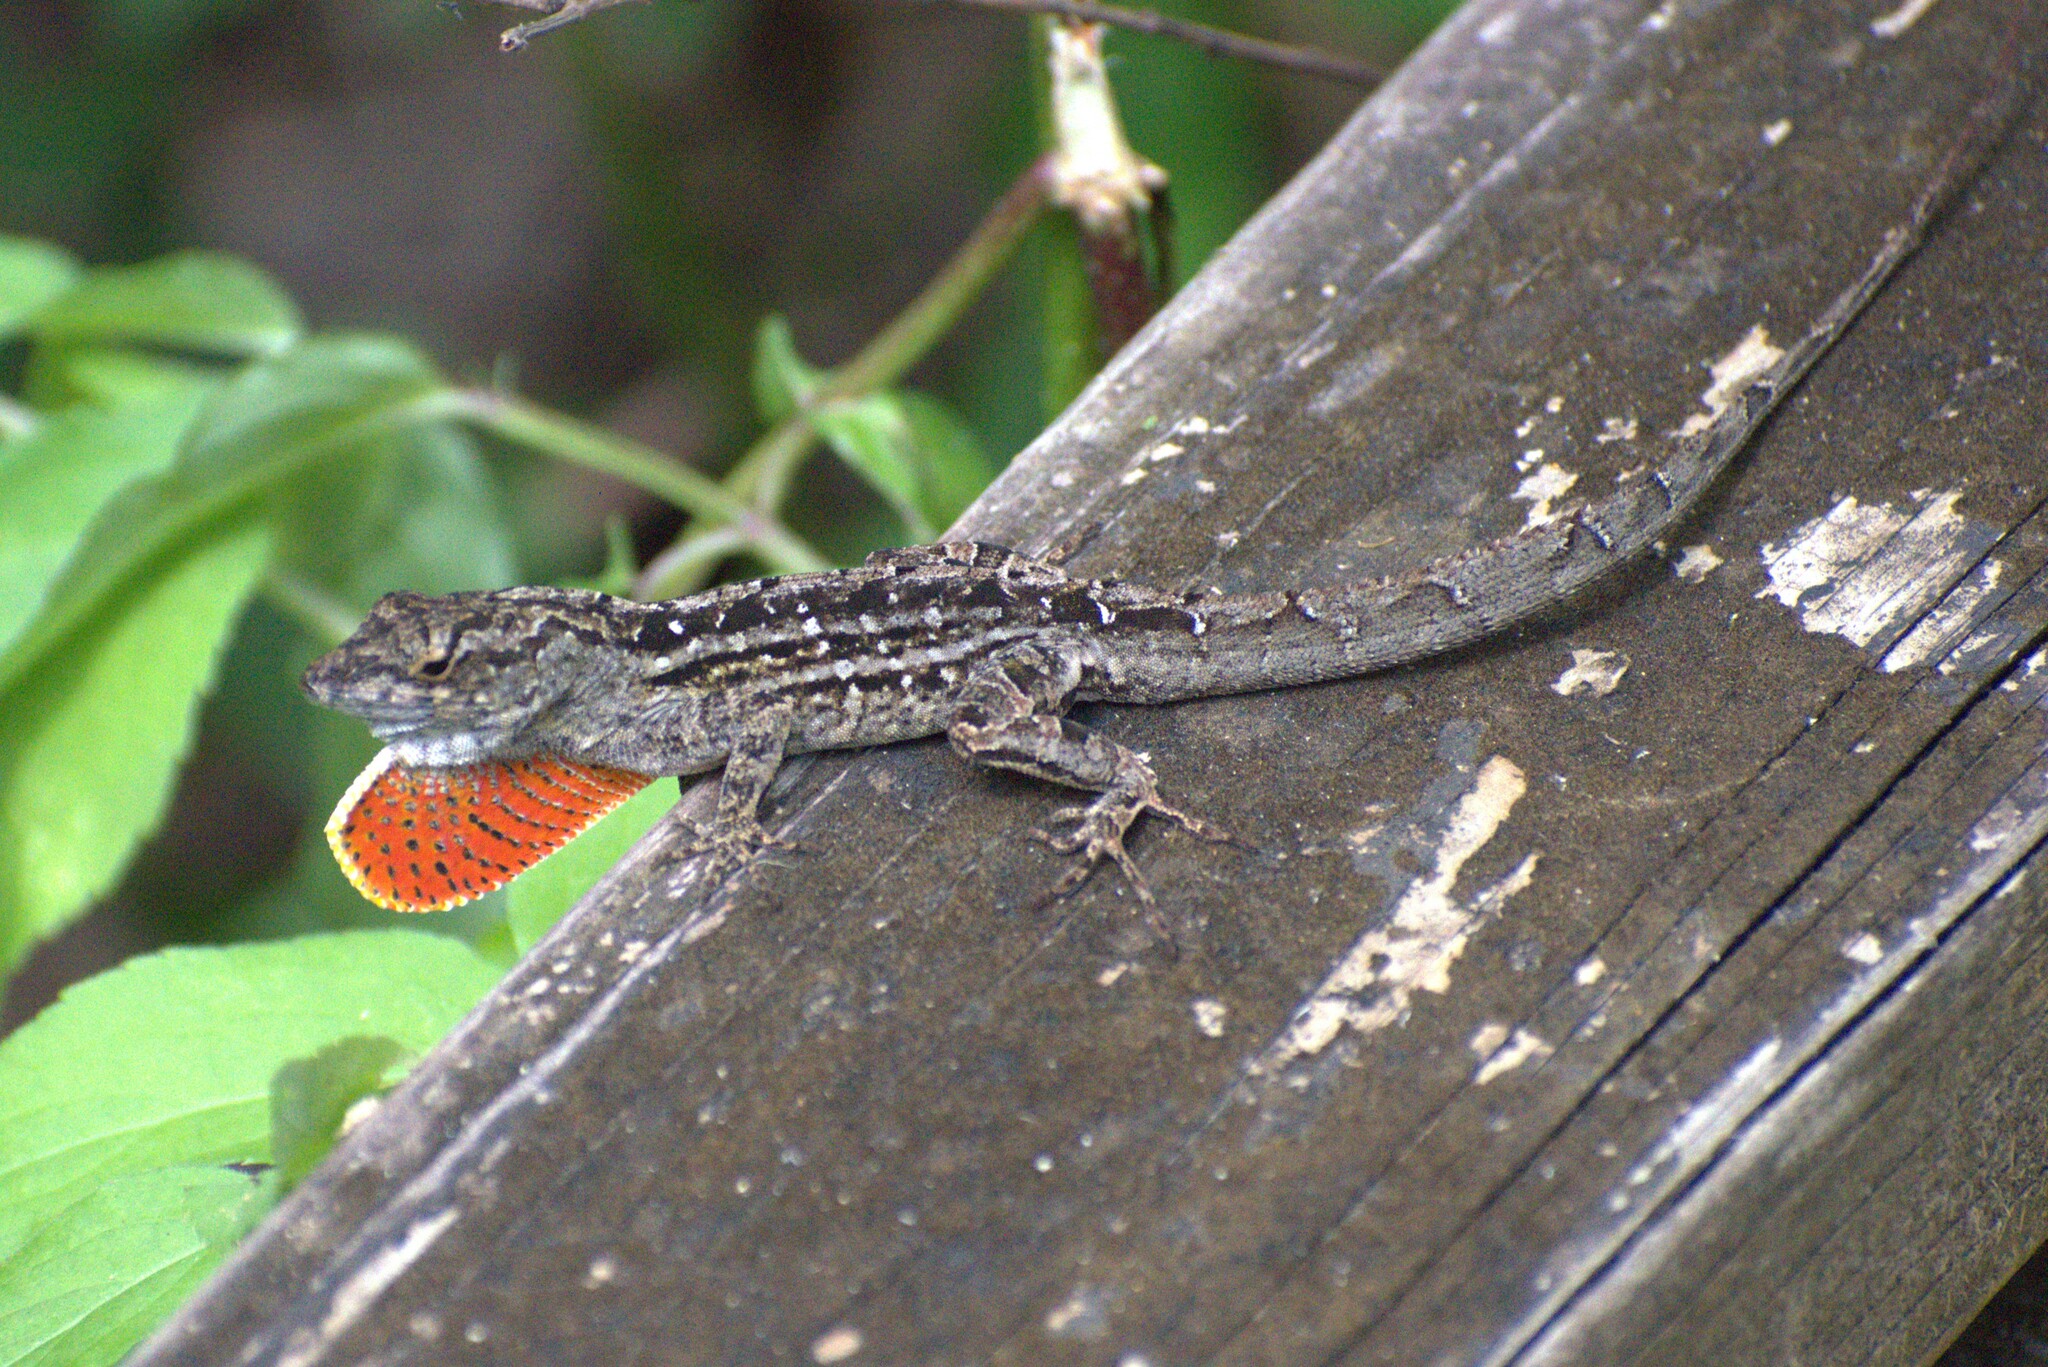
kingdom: Animalia
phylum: Chordata
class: Squamata
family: Dactyloidae
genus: Anolis
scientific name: Anolis sagrei
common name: Brown anole
